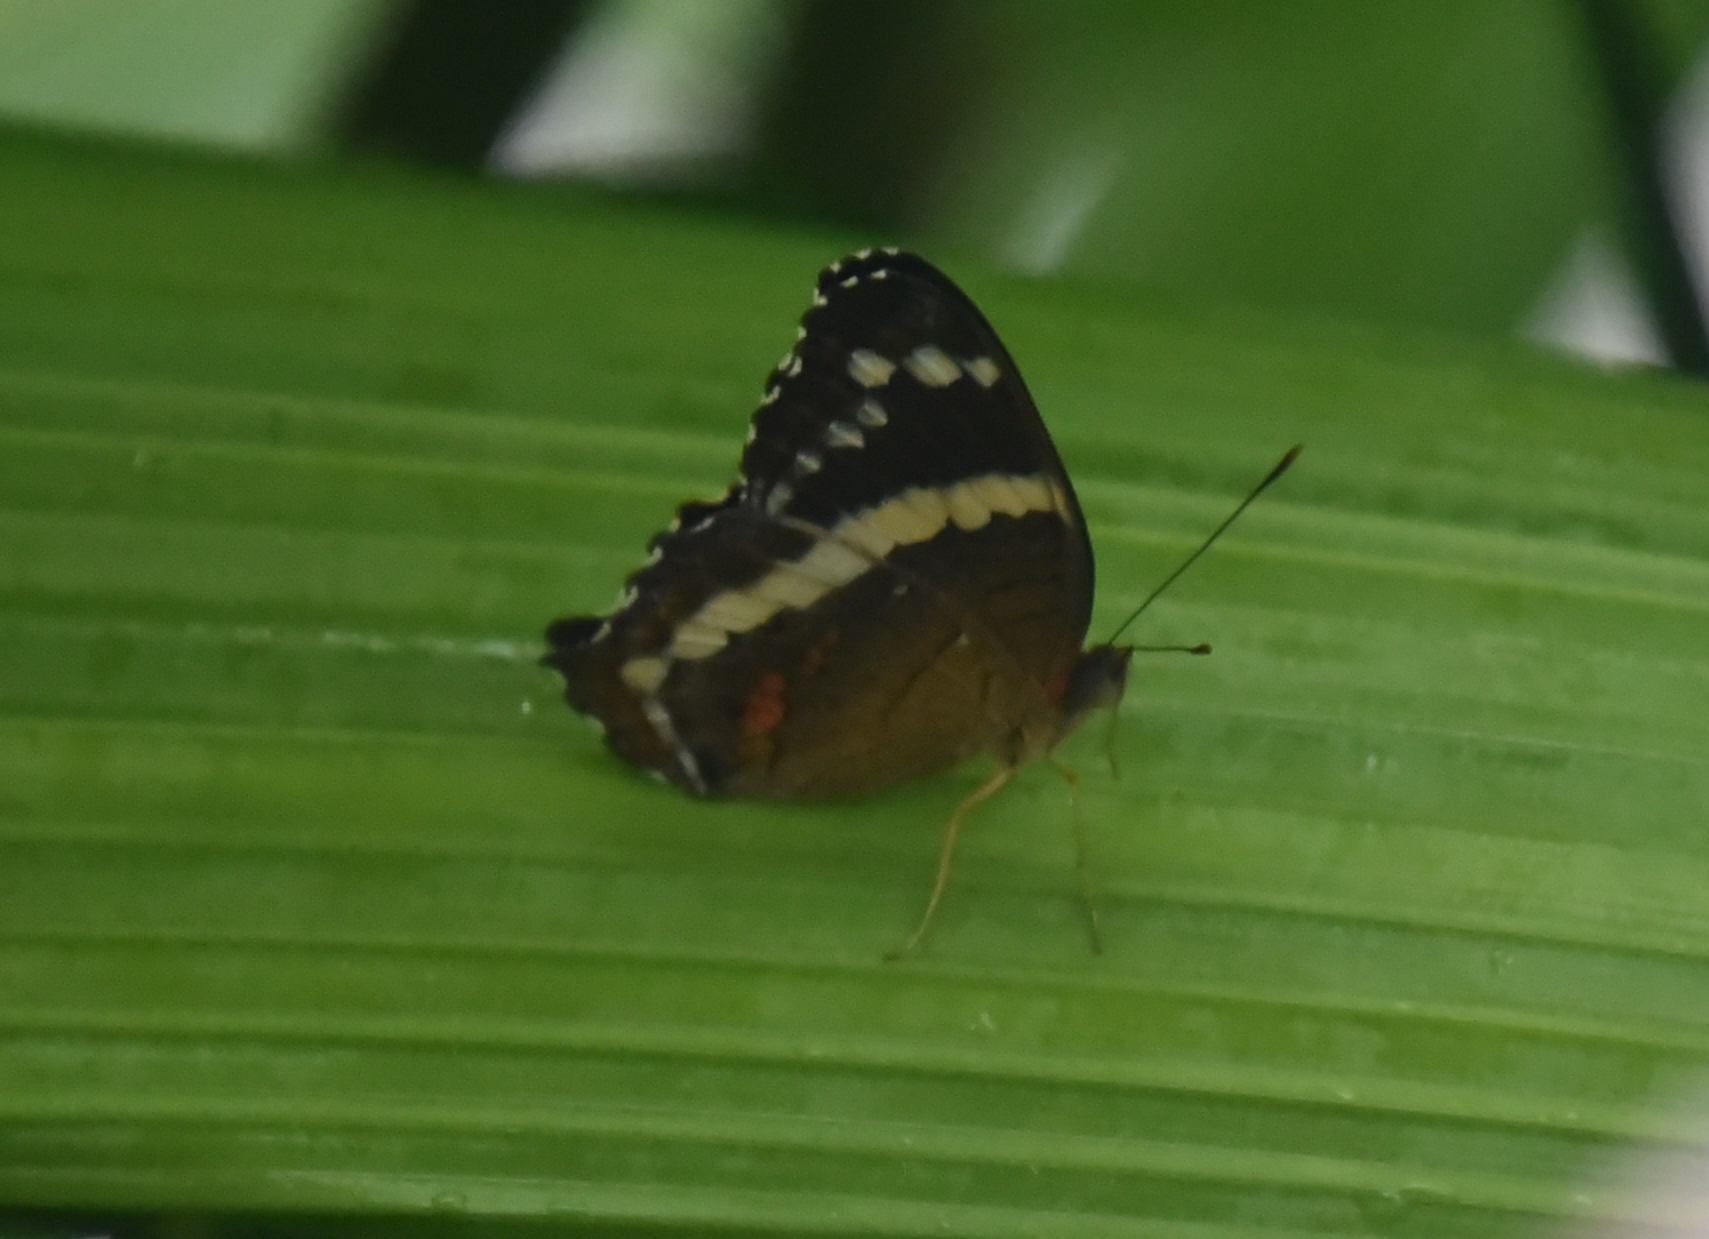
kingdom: Animalia
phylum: Arthropoda
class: Insecta
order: Lepidoptera
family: Nymphalidae
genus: Anartia
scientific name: Anartia fatima
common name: Banded peacock
